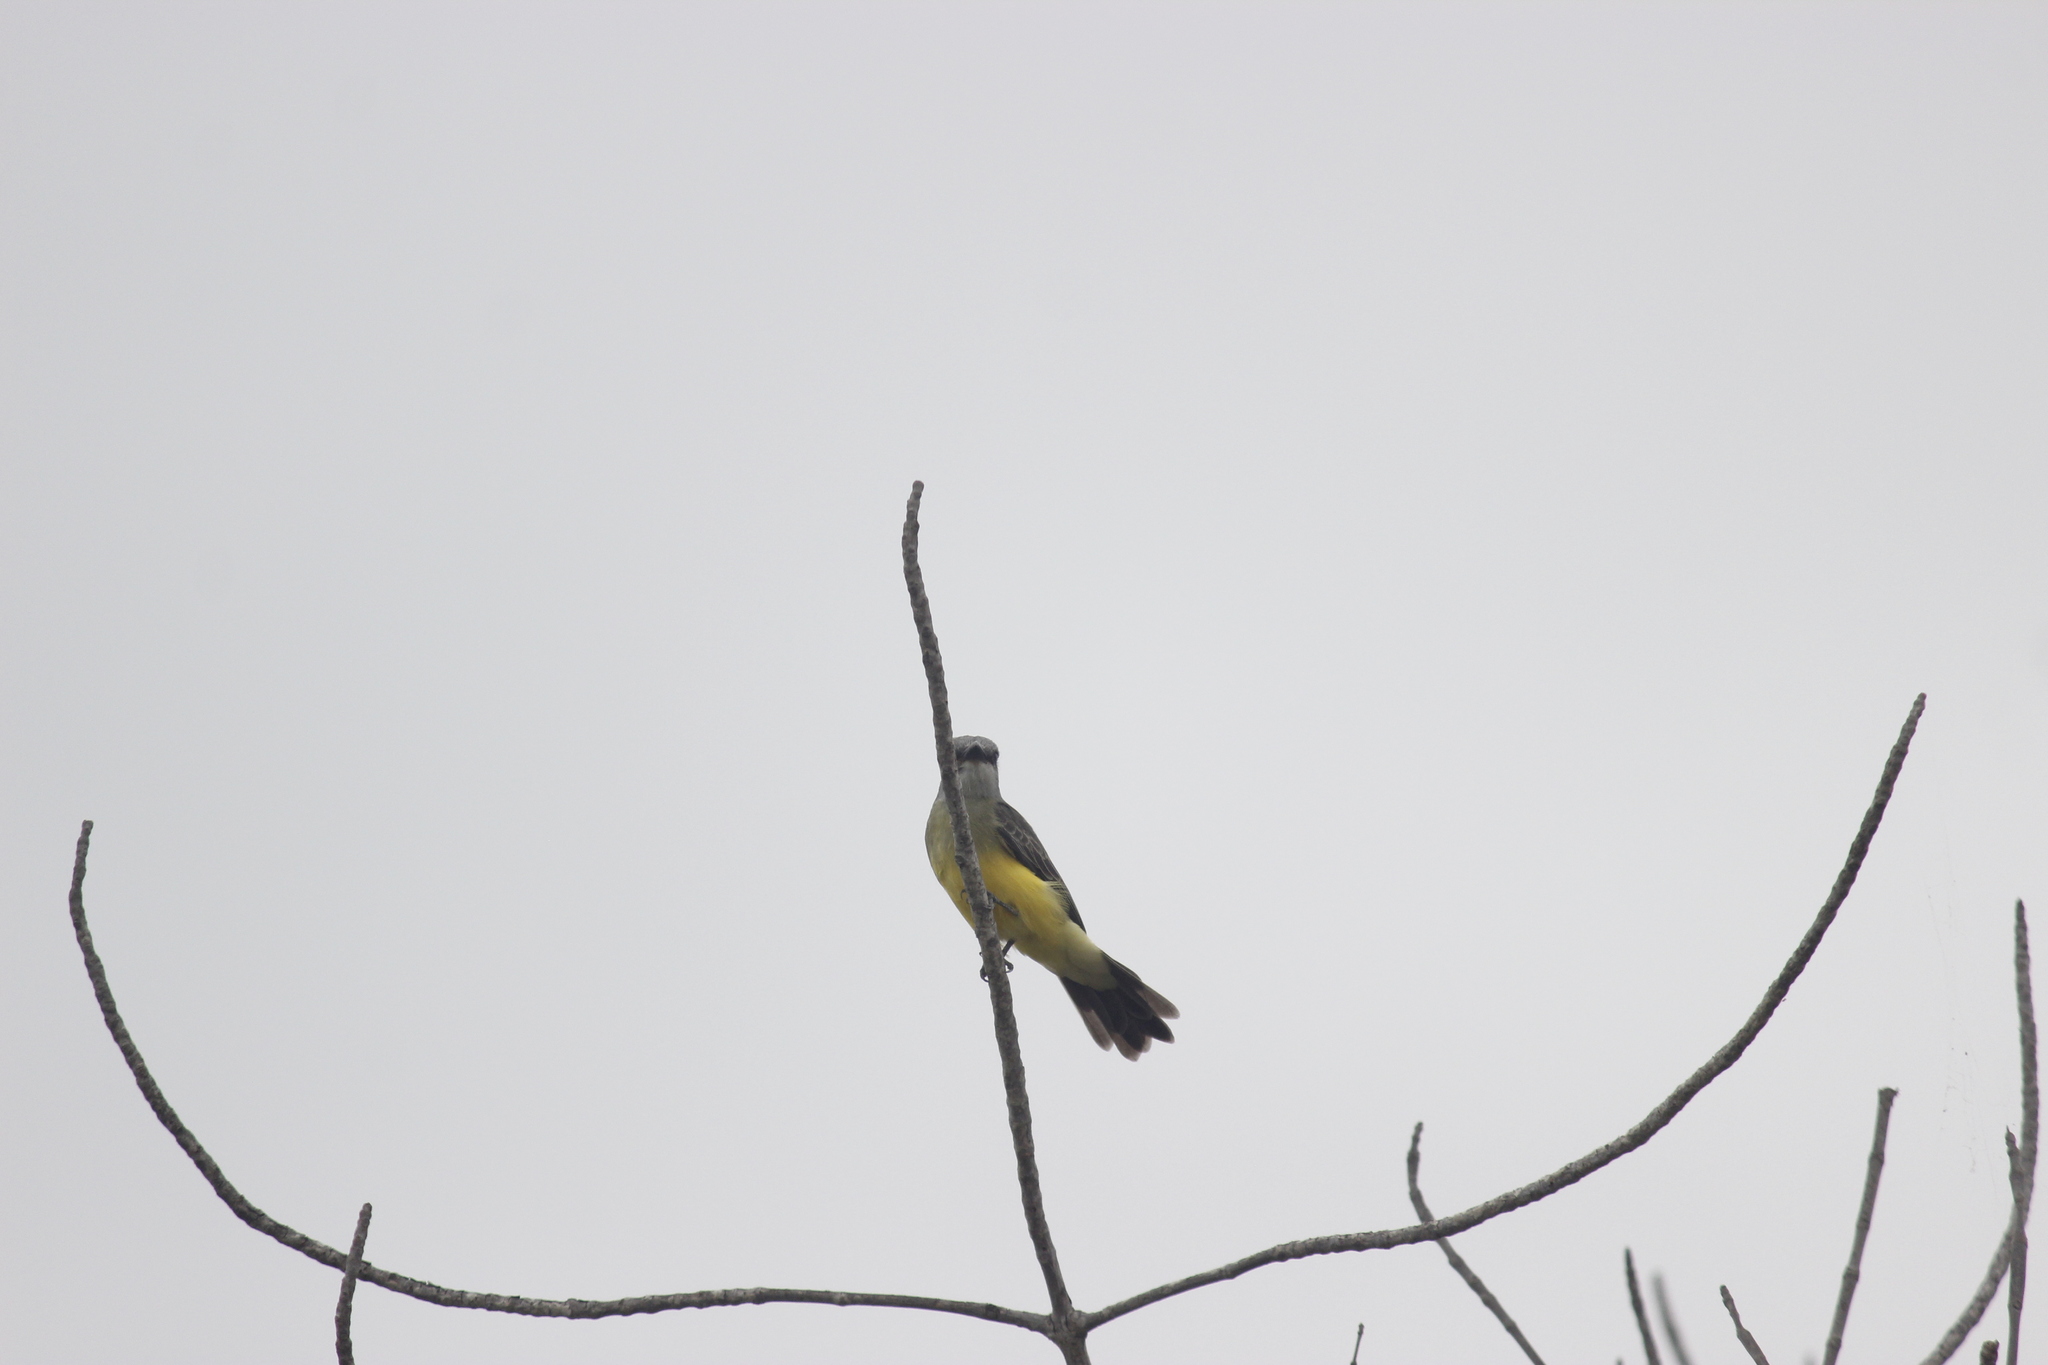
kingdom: Animalia
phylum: Chordata
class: Aves
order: Passeriformes
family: Tyrannidae
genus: Tyrannus
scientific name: Tyrannus melancholicus
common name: Tropical kingbird
